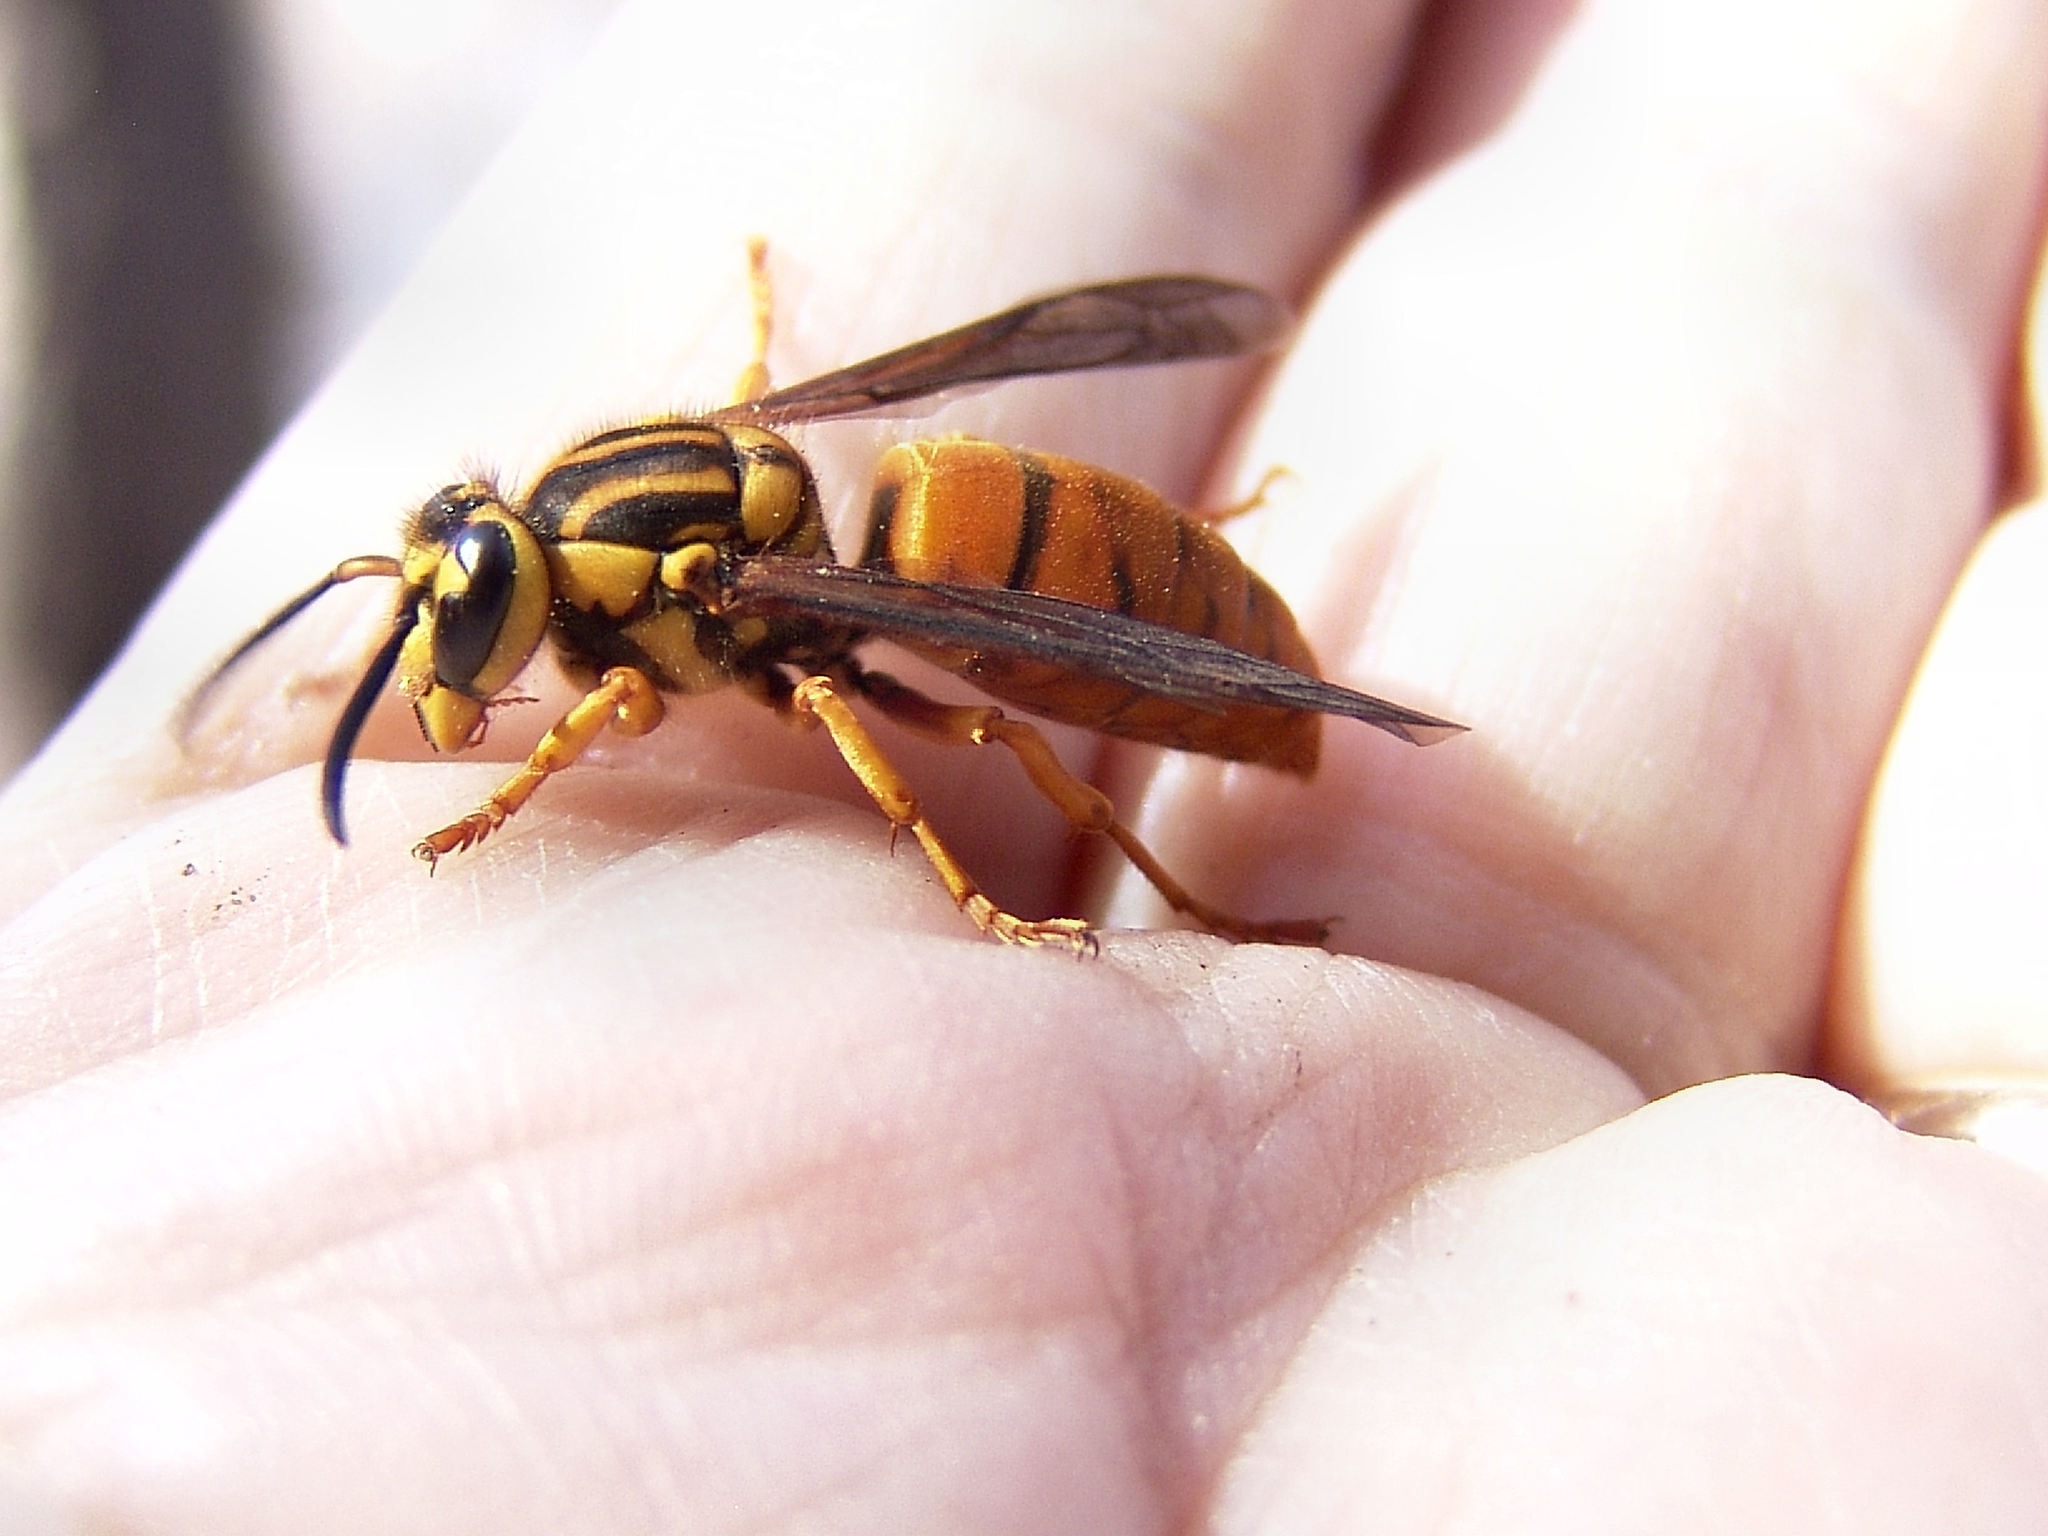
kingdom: Animalia
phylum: Arthropoda
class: Insecta
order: Hymenoptera
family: Vespidae
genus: Vespula
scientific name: Vespula squamosa
